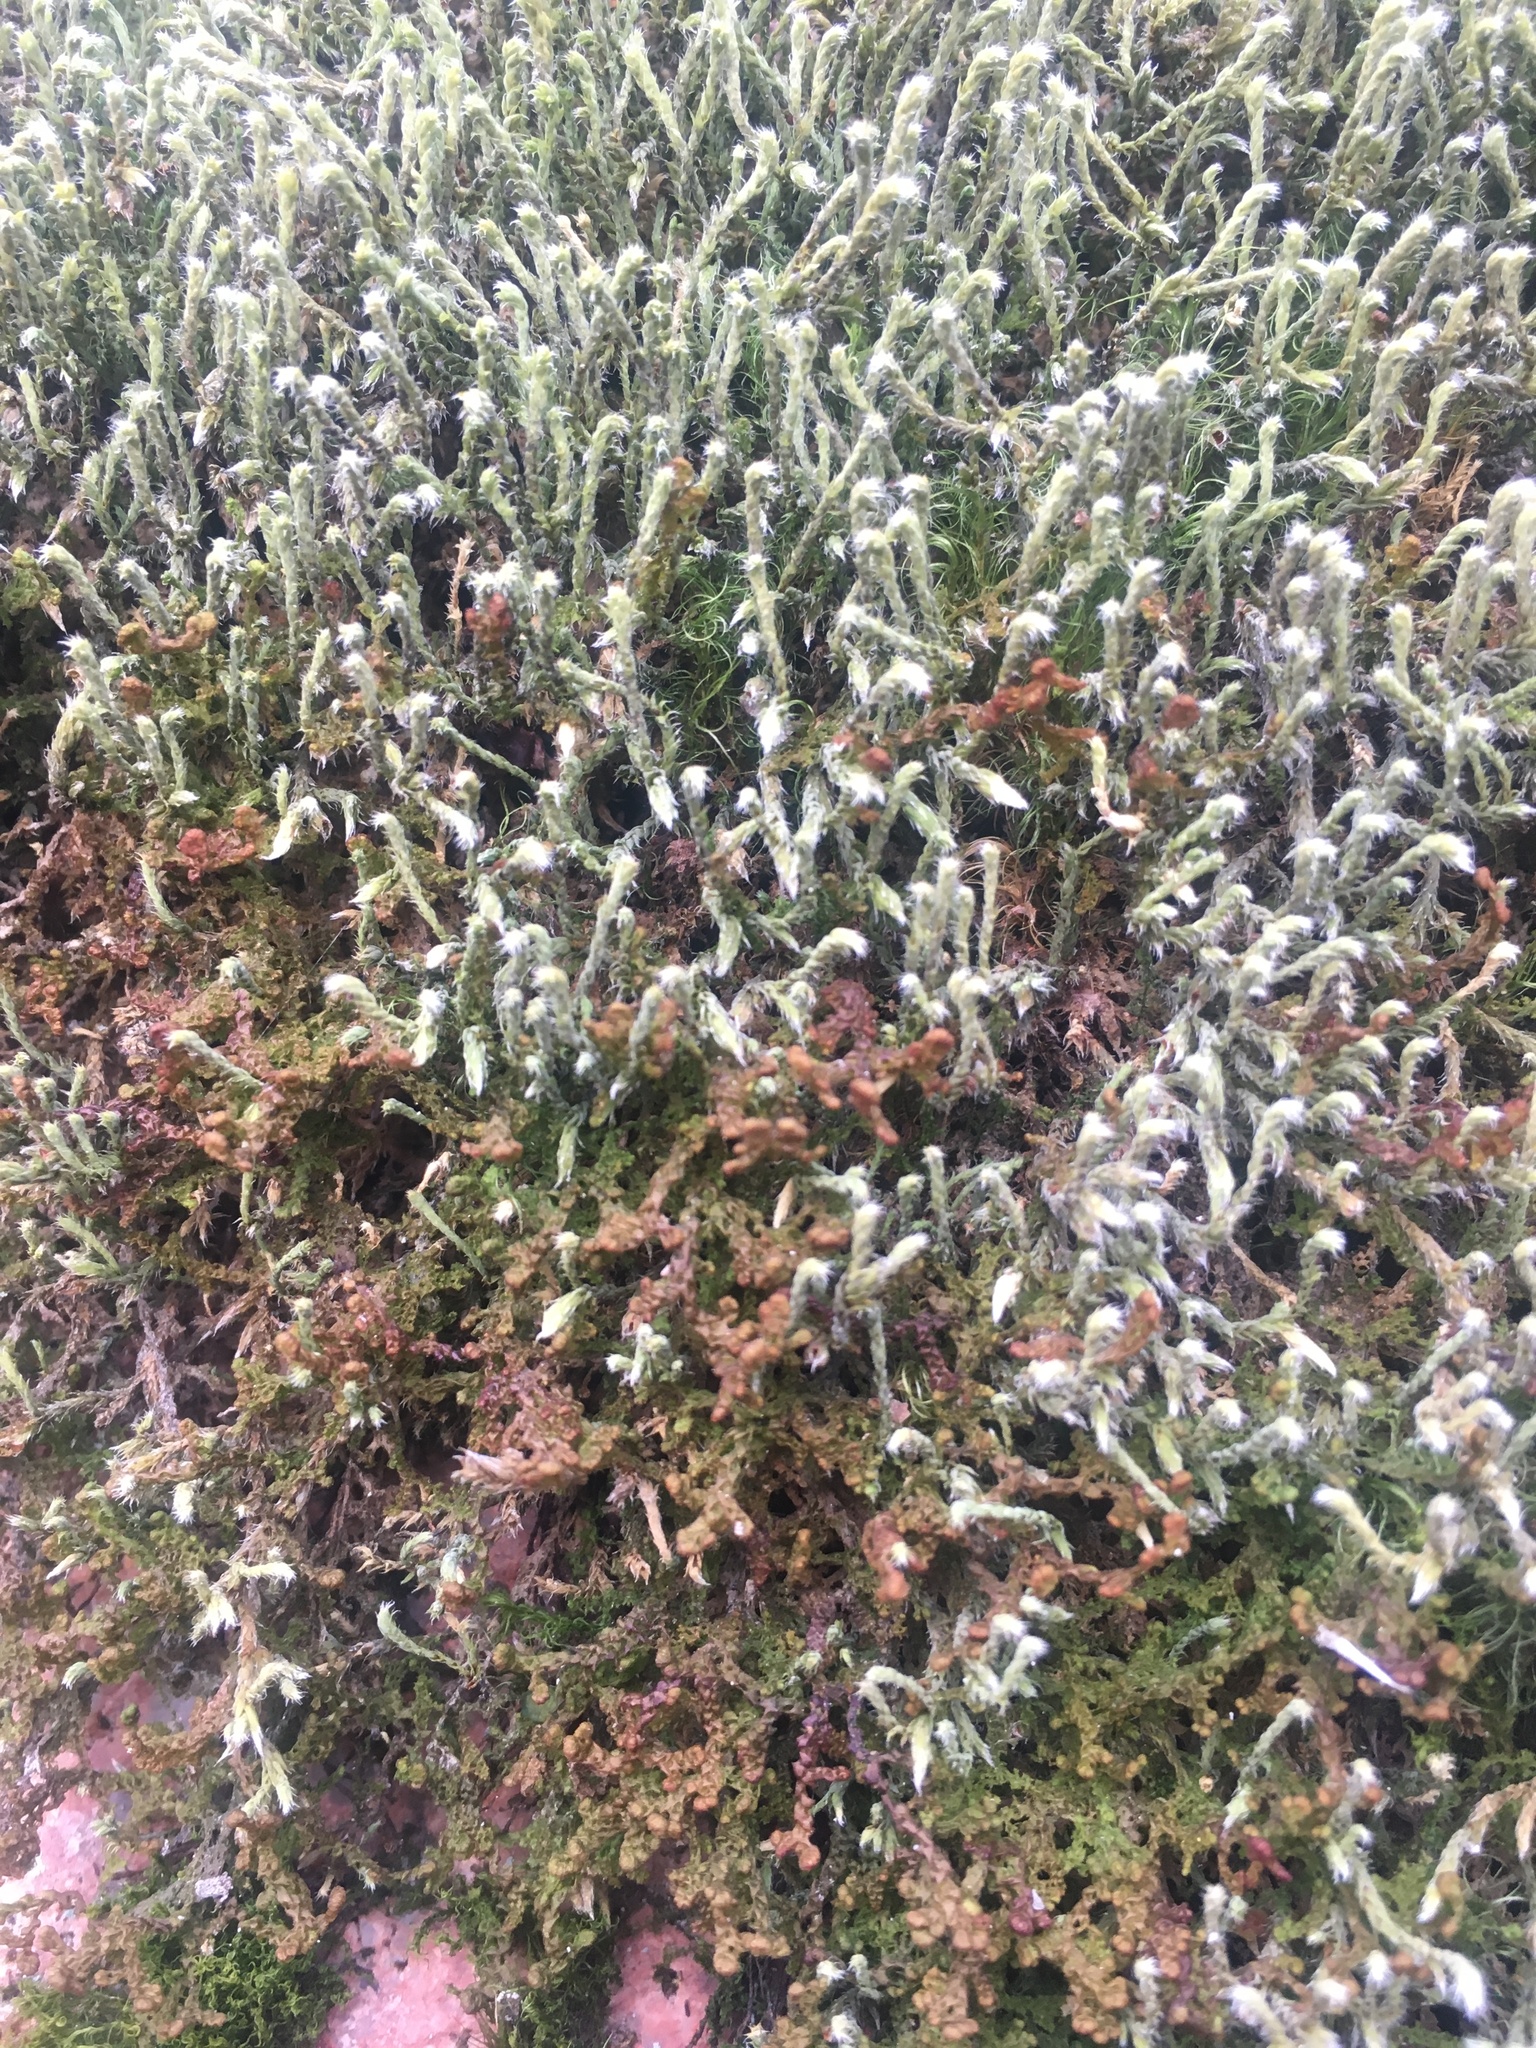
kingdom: Plantae
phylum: Bryophyta
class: Bryopsida
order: Hedwigiales
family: Hedwigiaceae
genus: Hedwigia
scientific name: Hedwigia emodica
